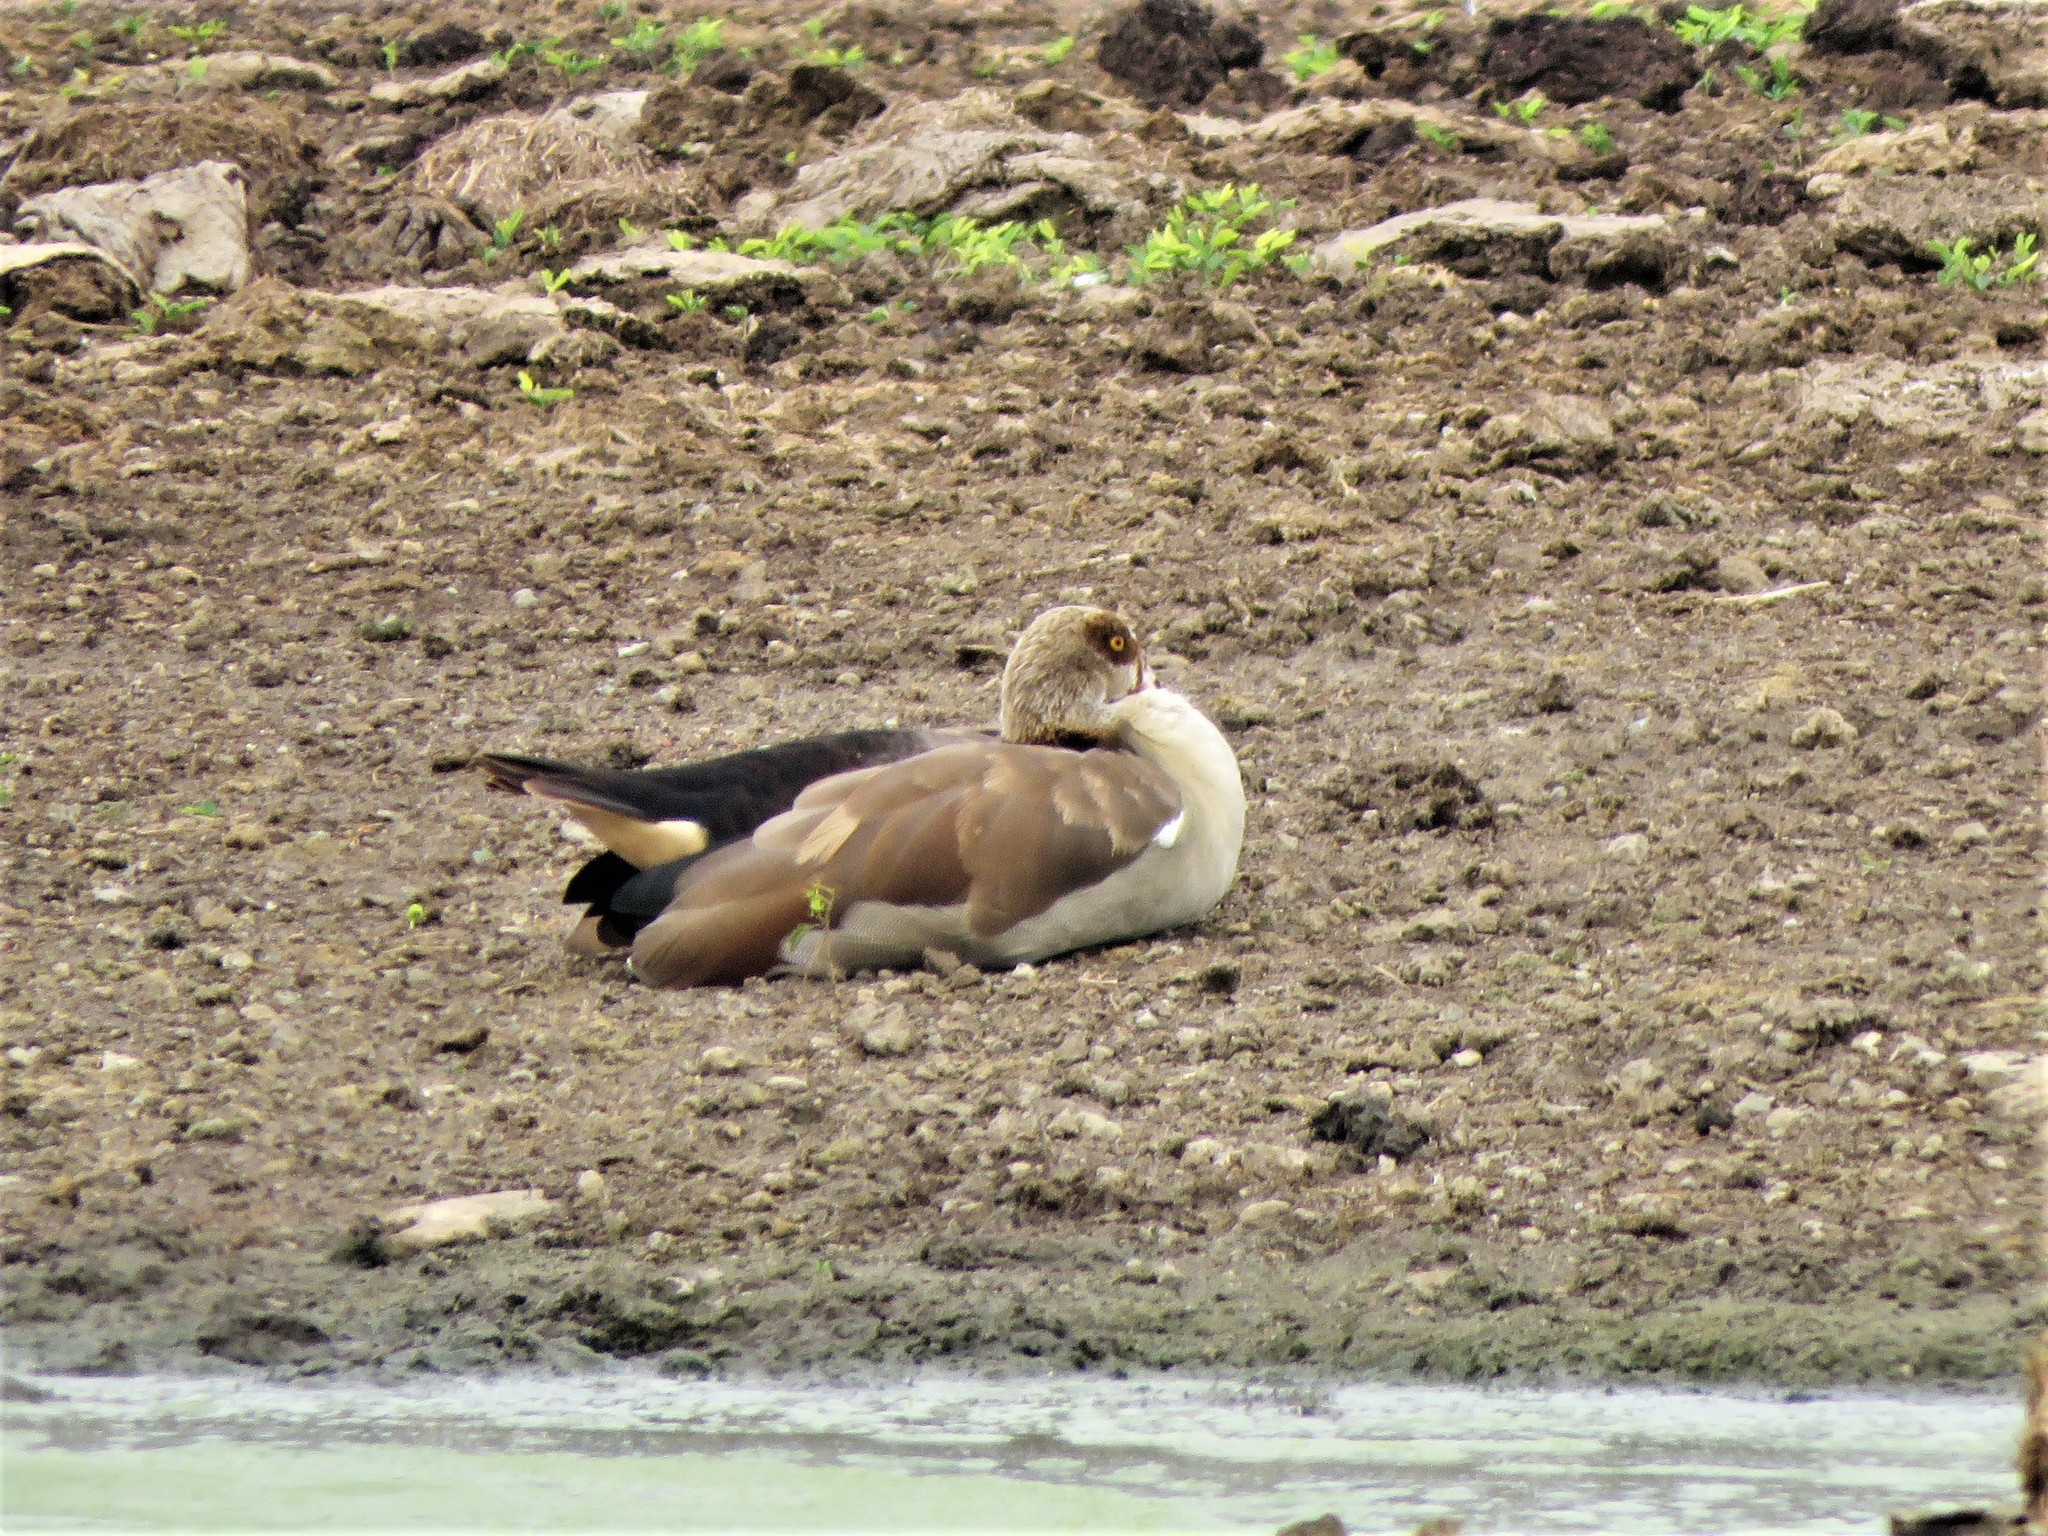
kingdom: Animalia
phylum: Chordata
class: Aves
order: Anseriformes
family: Anatidae
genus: Alopochen
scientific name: Alopochen aegyptiaca
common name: Egyptian goose
